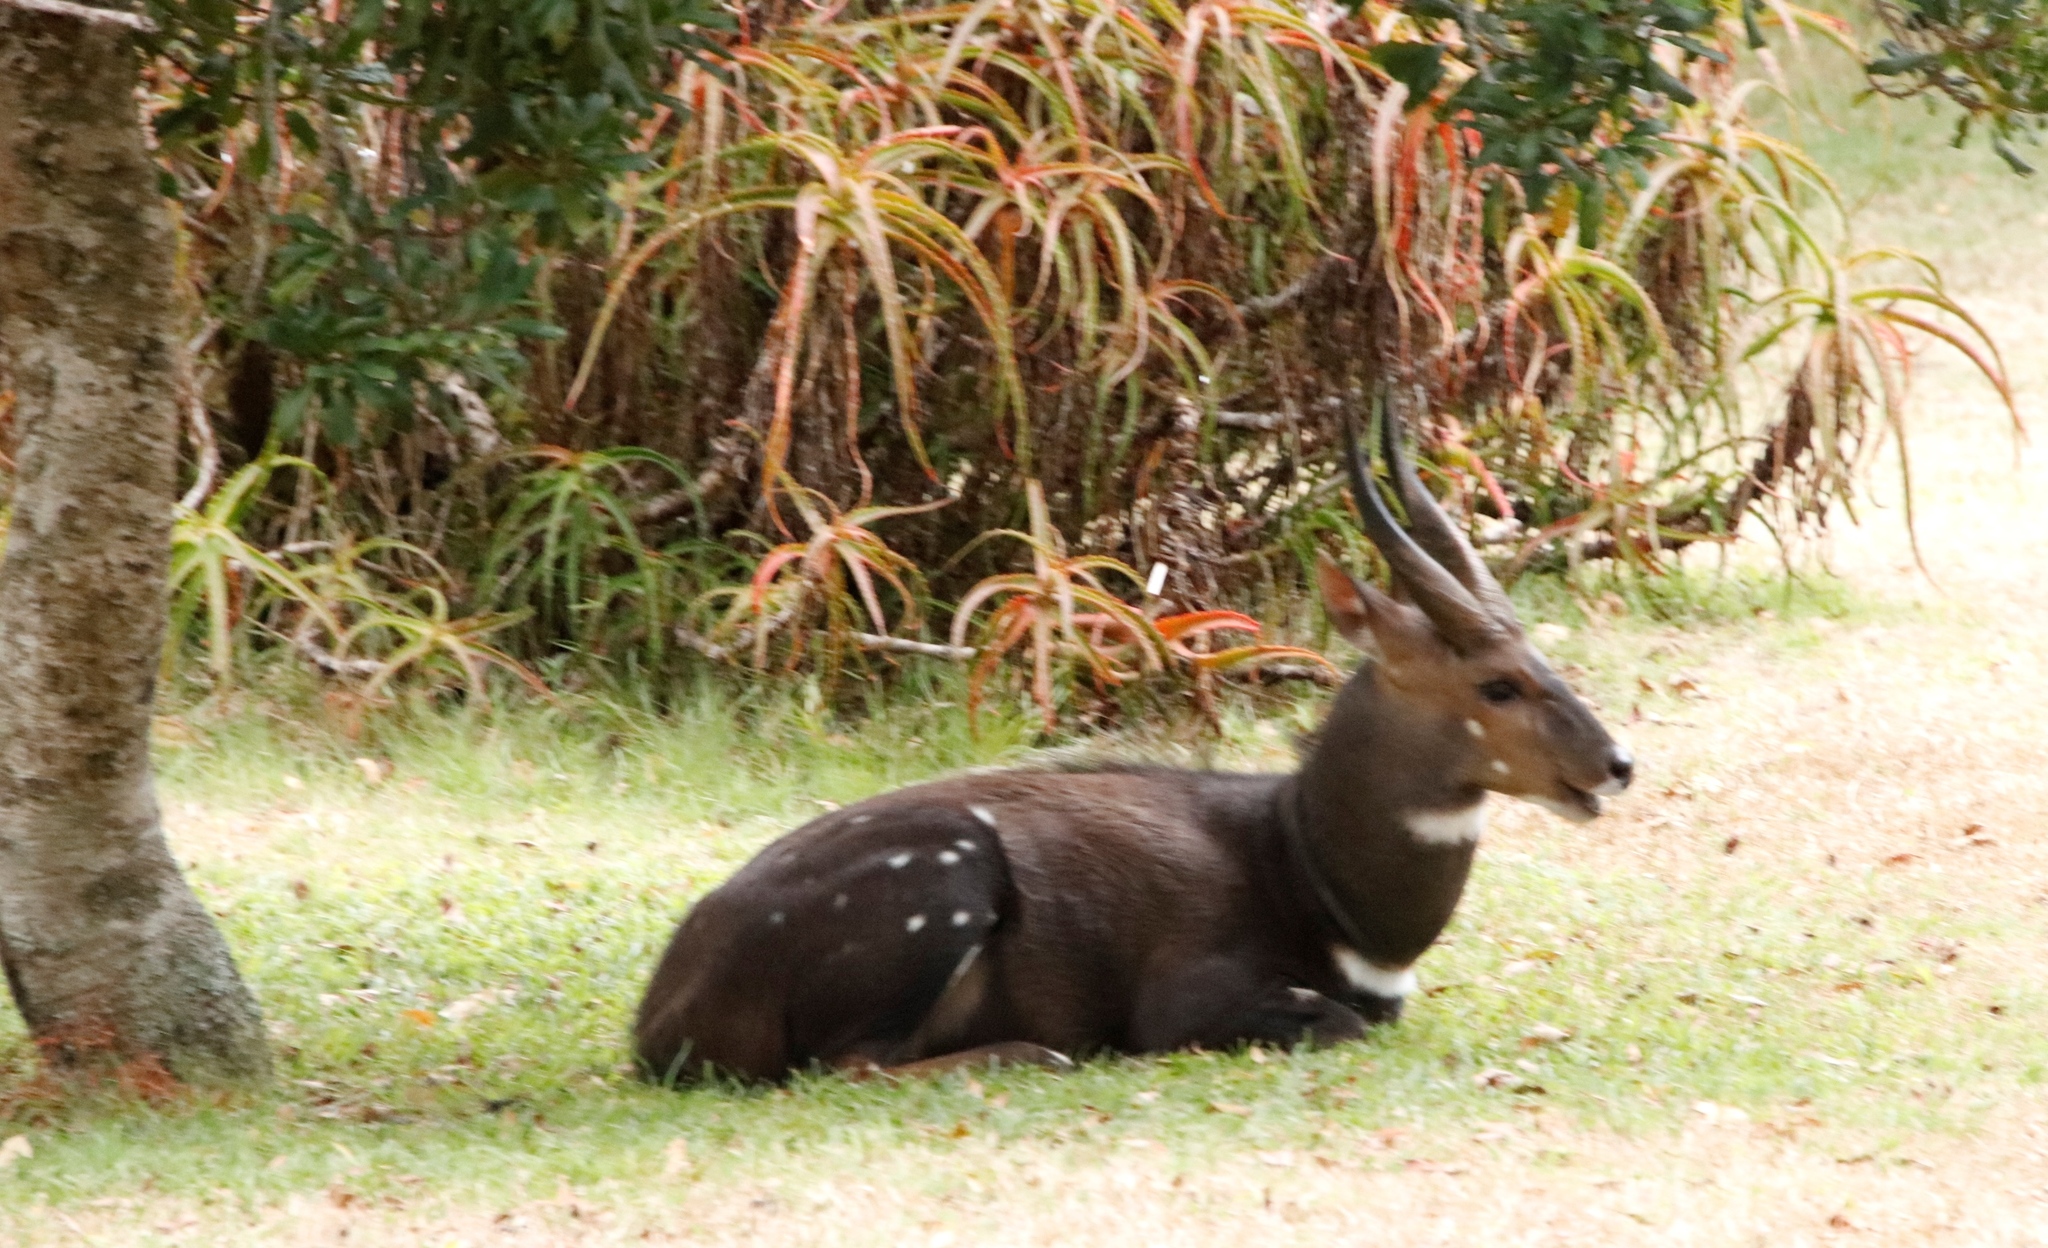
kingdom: Animalia
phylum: Chordata
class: Mammalia
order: Artiodactyla
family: Bovidae
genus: Tragelaphus
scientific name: Tragelaphus scriptus
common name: Bushbuck
